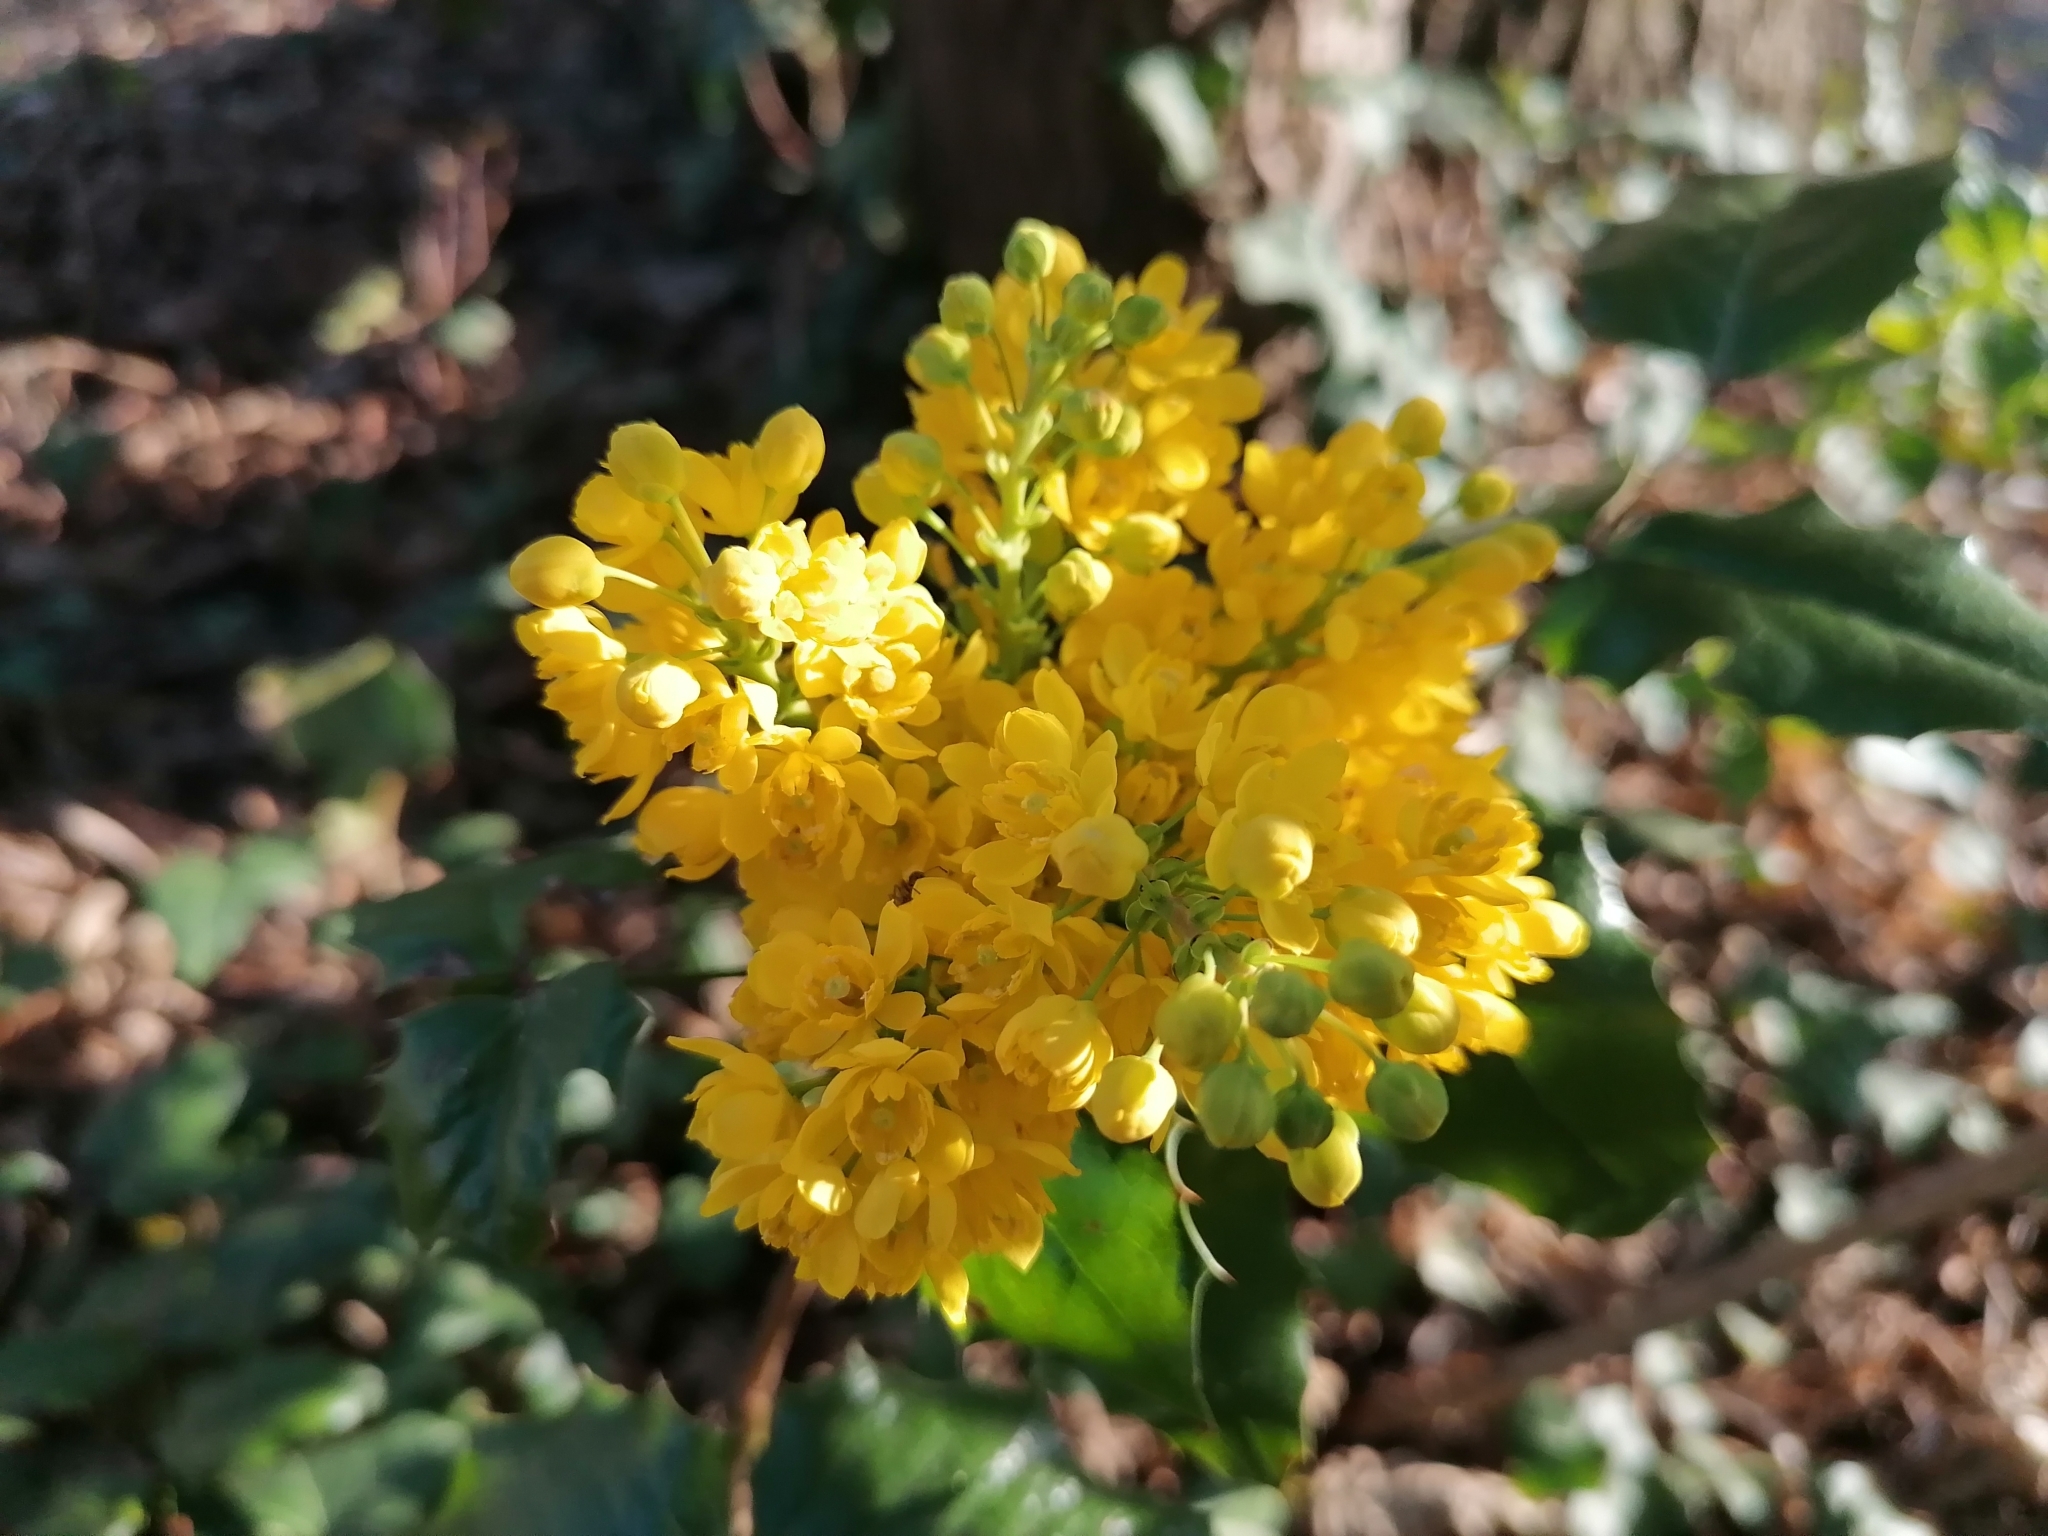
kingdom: Plantae
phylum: Tracheophyta
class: Magnoliopsida
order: Ranunculales
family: Berberidaceae
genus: Mahonia
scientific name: Mahonia aquifolium
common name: Oregon-grape
